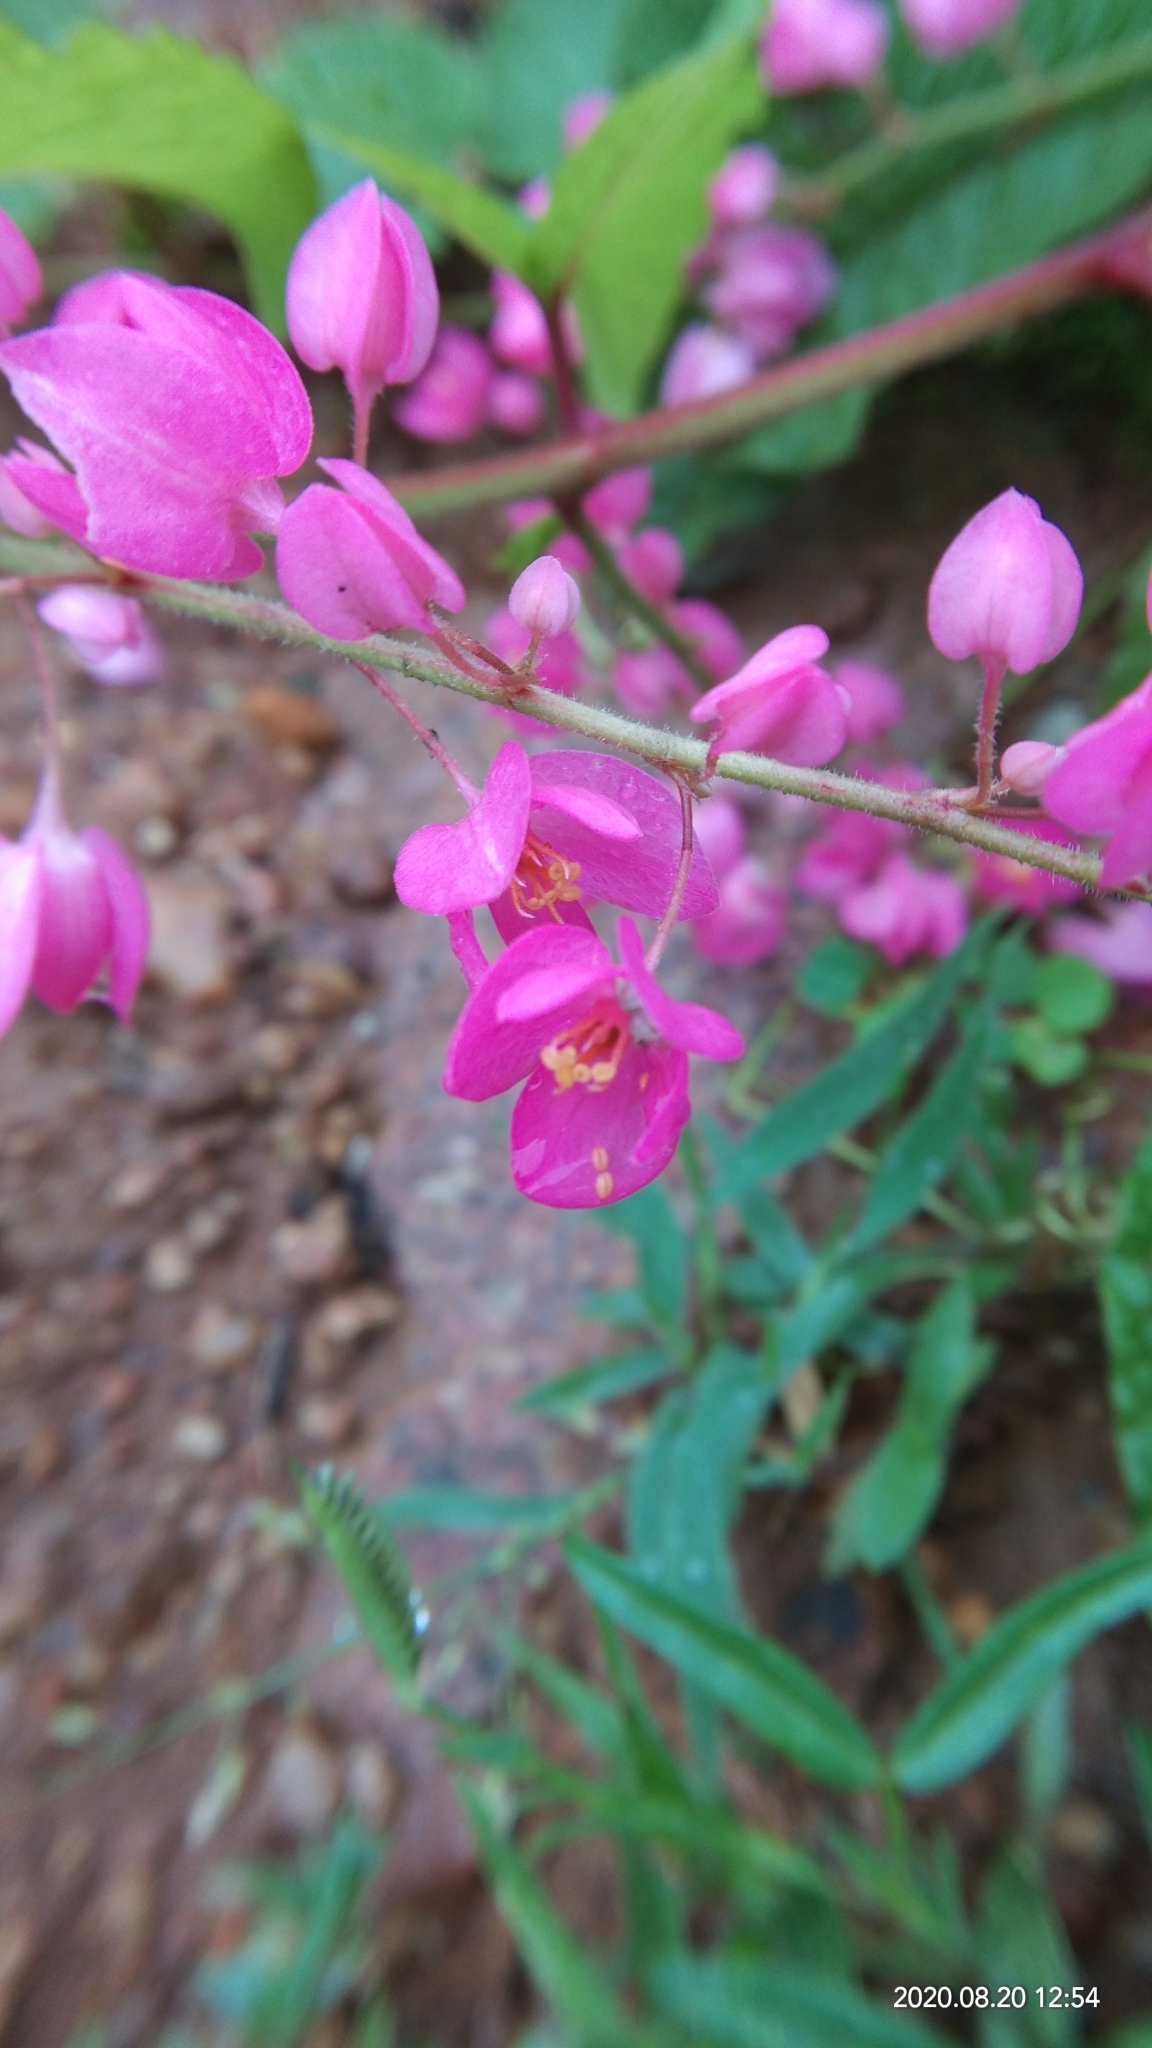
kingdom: Plantae
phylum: Tracheophyta
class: Magnoliopsida
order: Caryophyllales
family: Polygonaceae
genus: Antigonon
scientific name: Antigonon leptopus
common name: Coral vine
